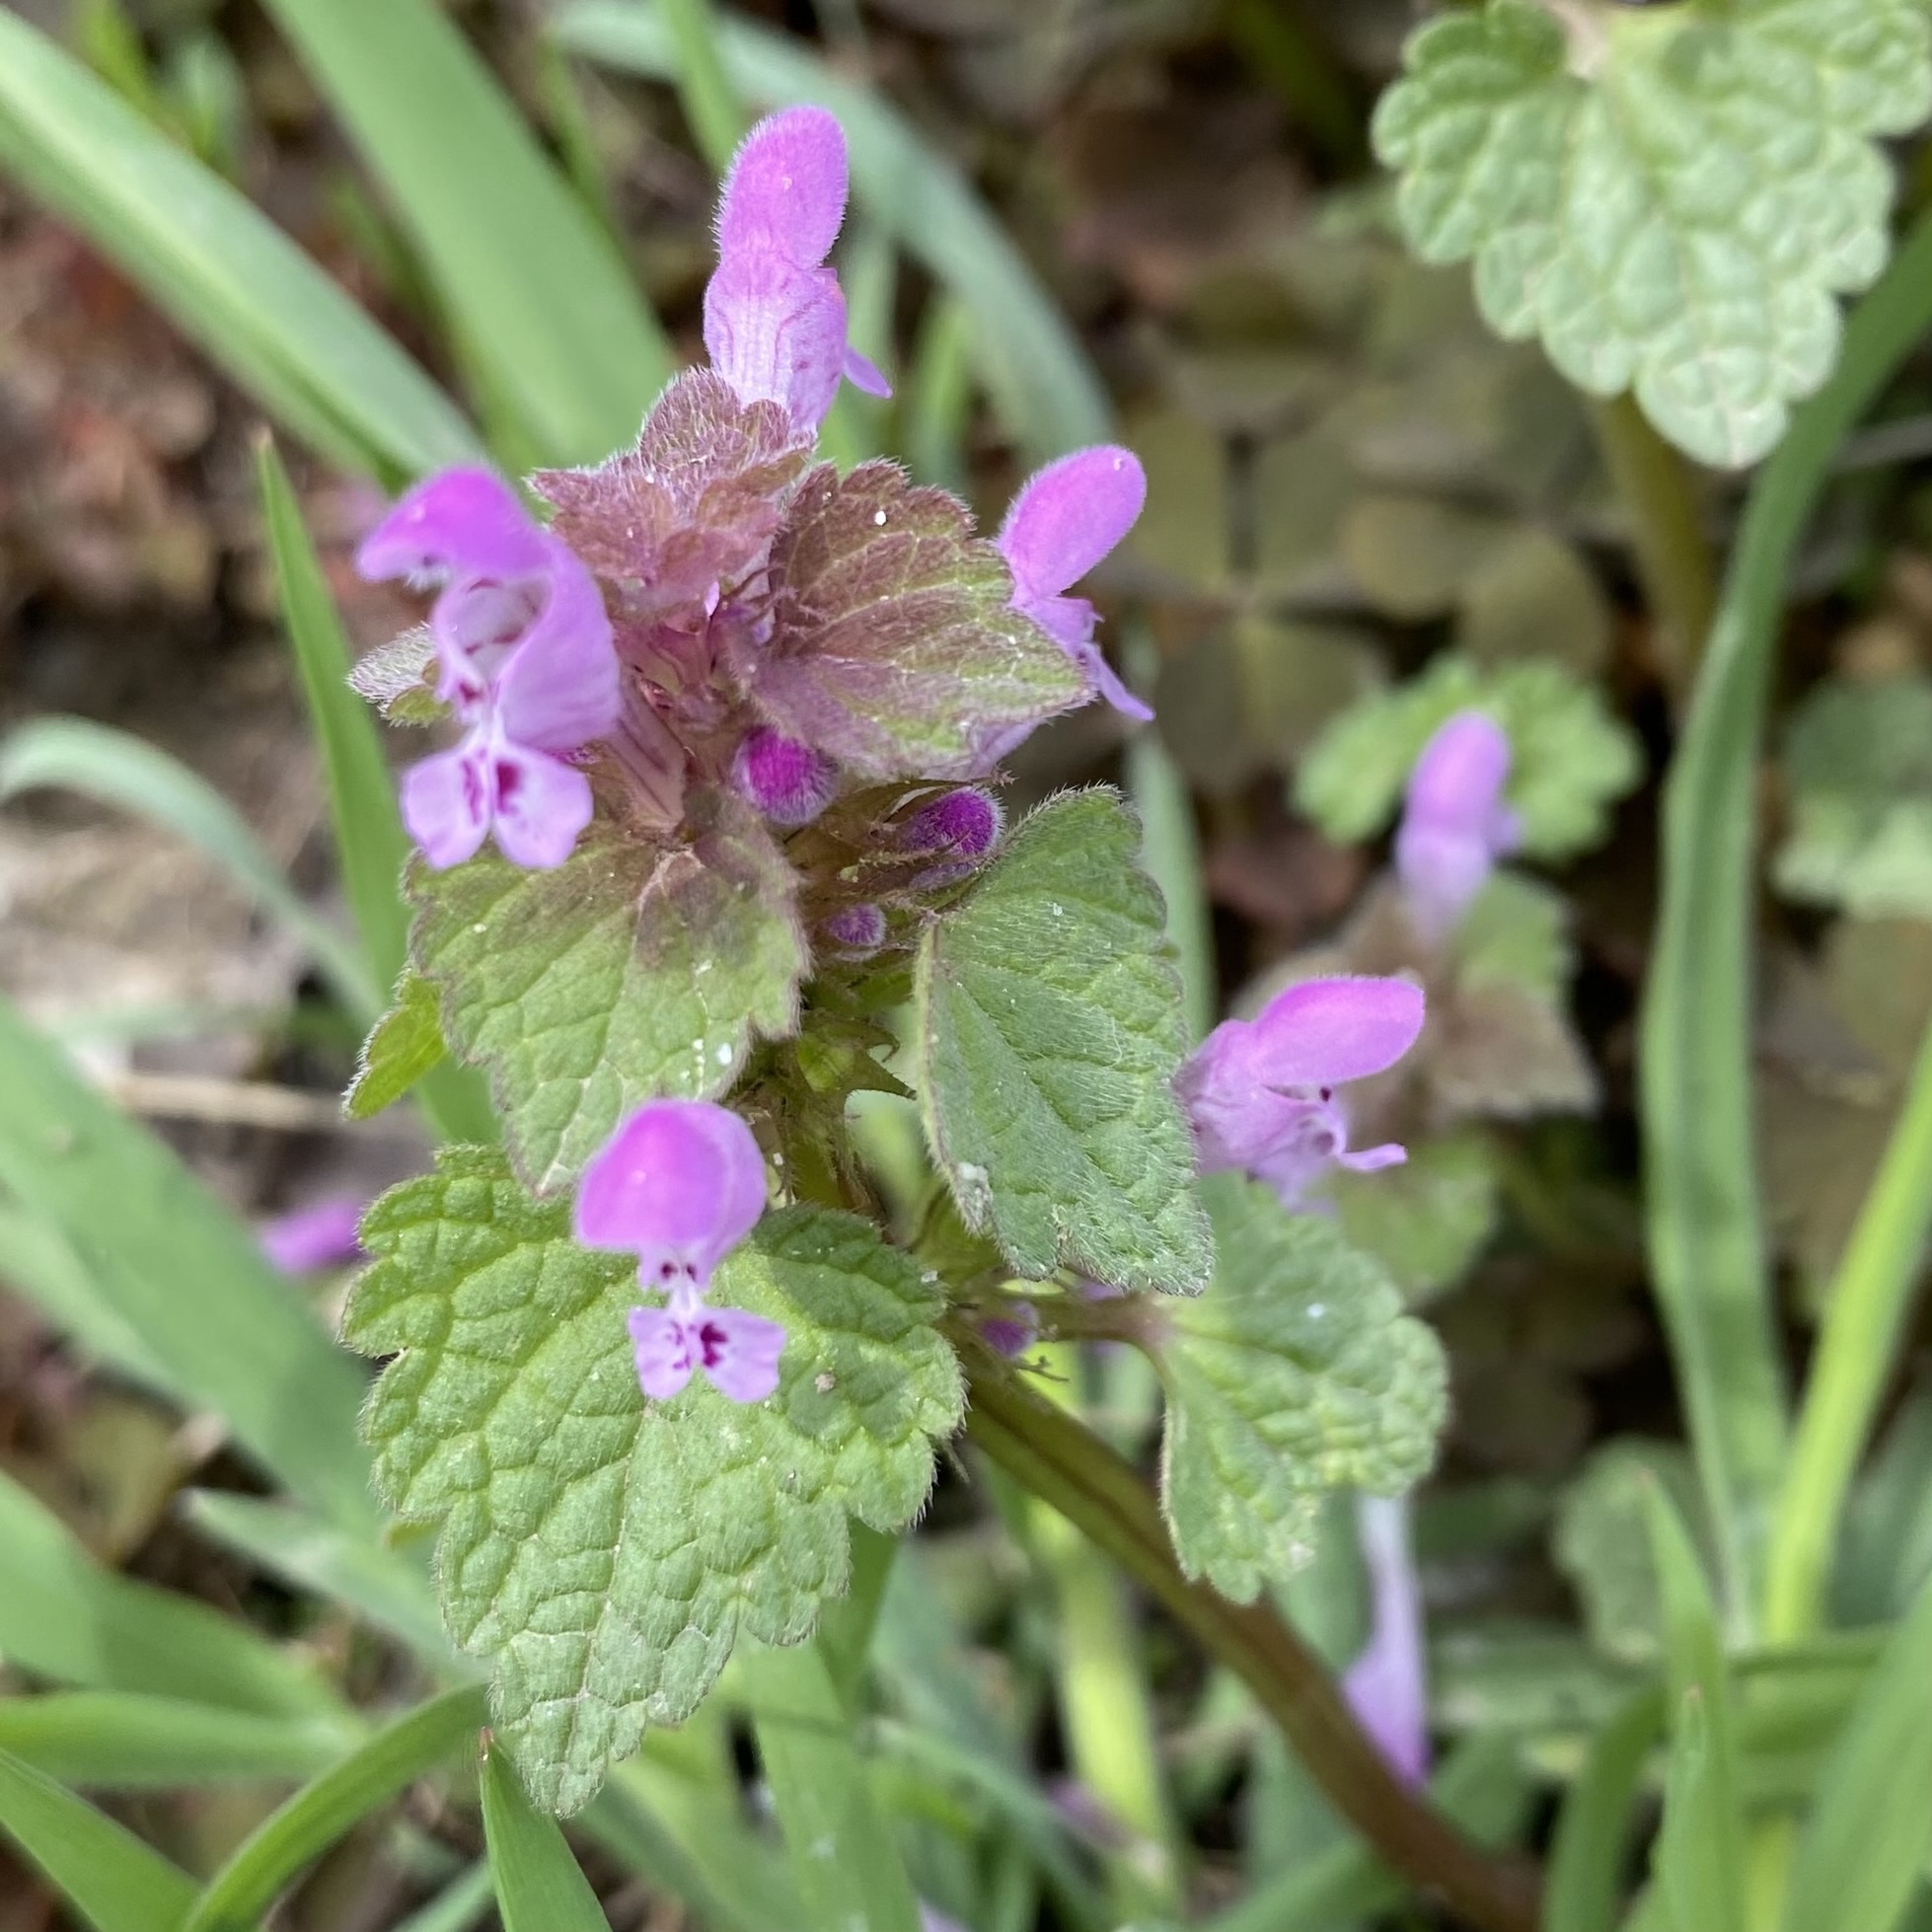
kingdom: Plantae
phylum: Tracheophyta
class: Magnoliopsida
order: Lamiales
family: Lamiaceae
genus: Lamium
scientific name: Lamium purpureum
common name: Red dead-nettle
